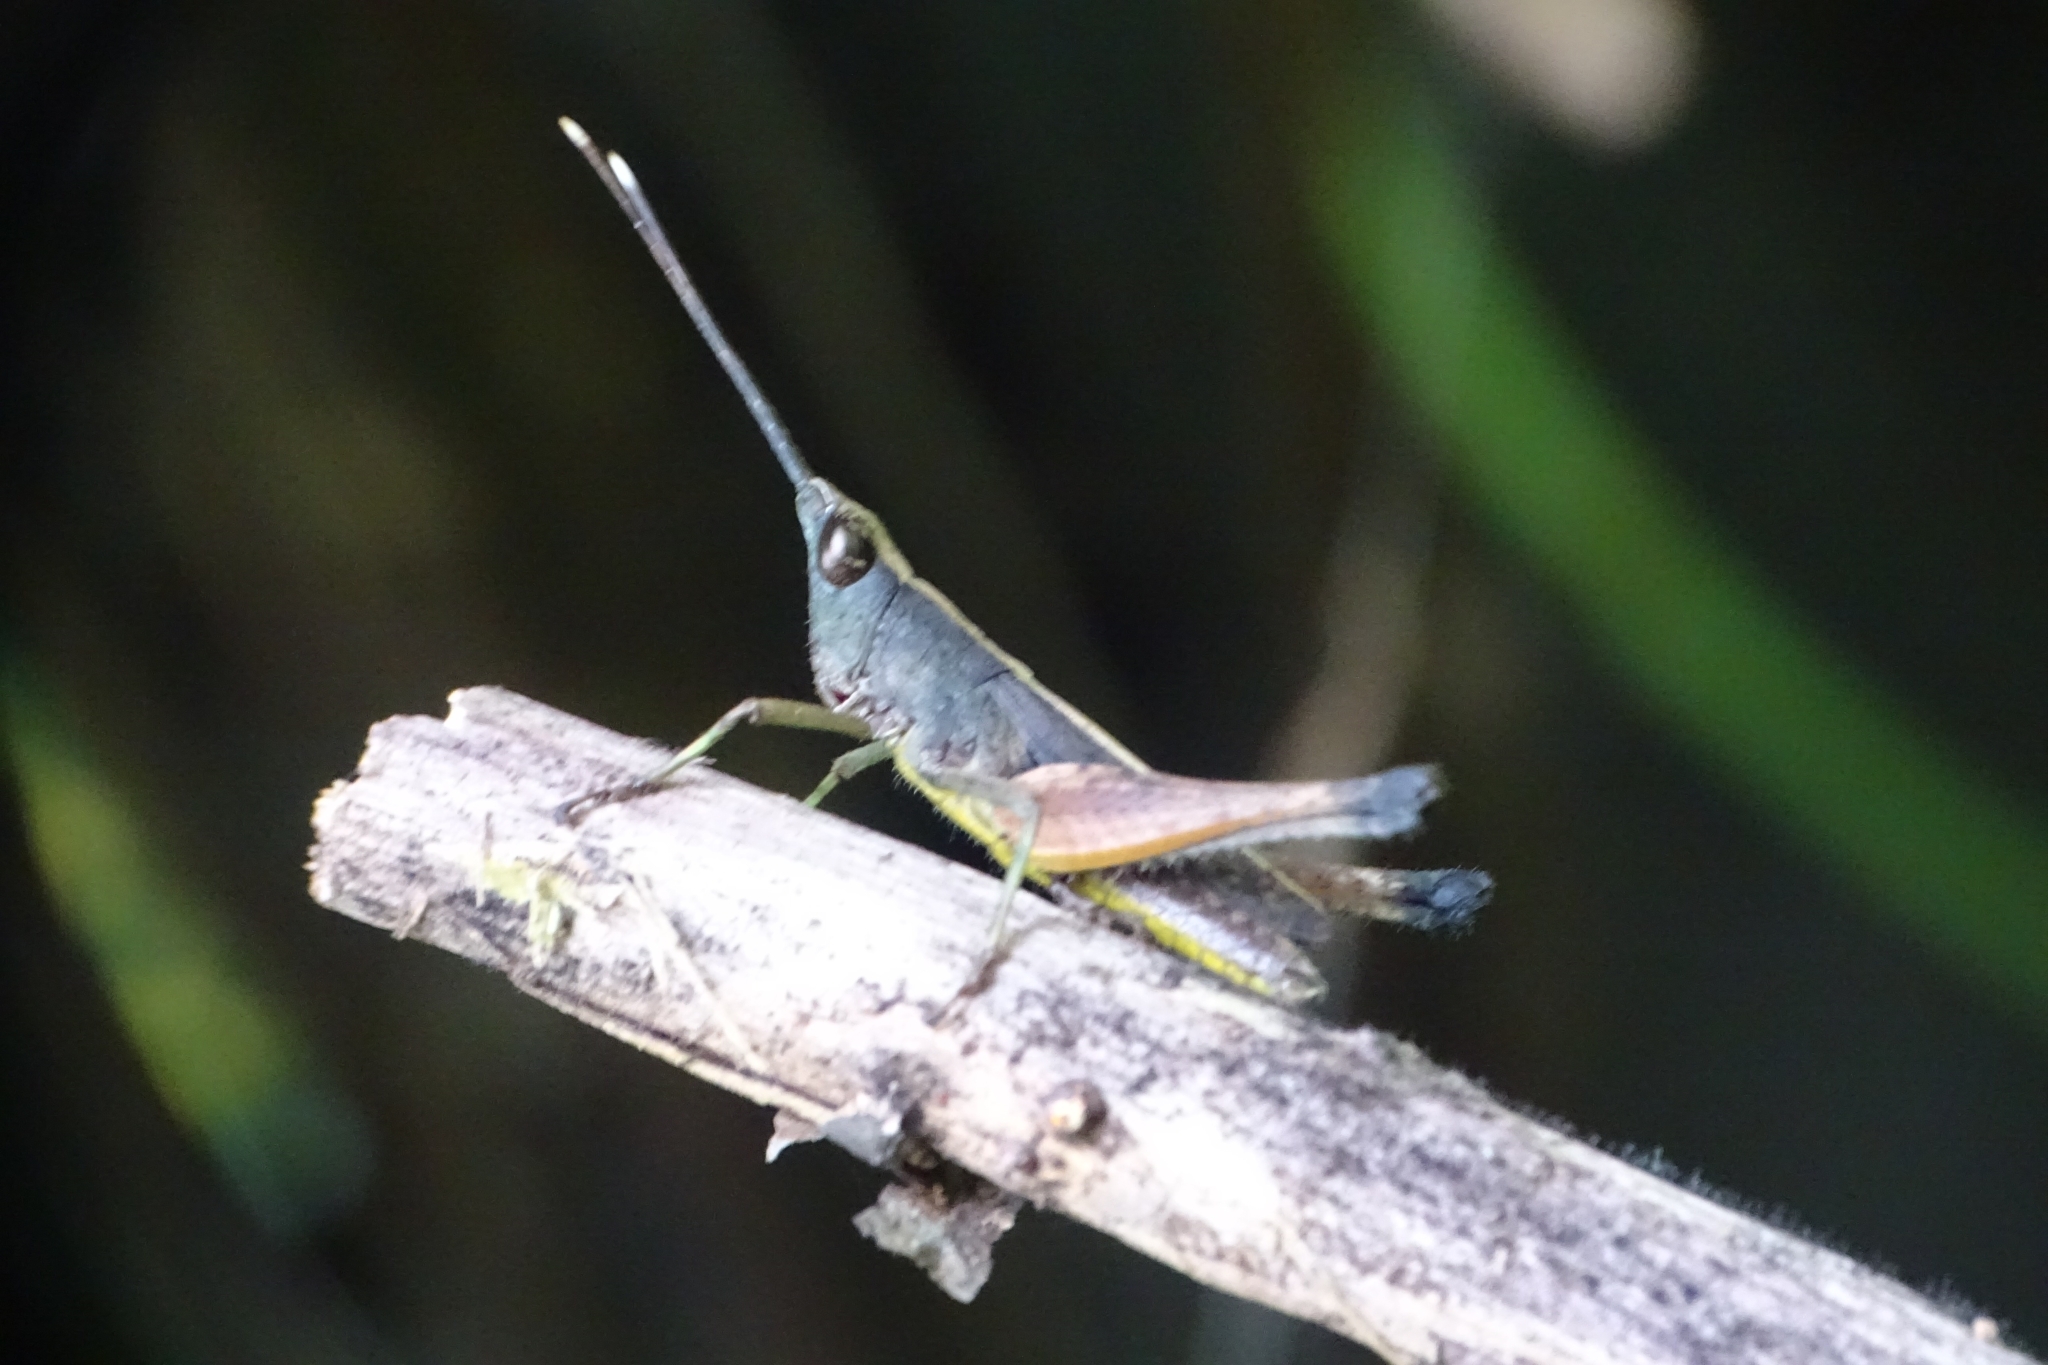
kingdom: Animalia
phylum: Arthropoda
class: Insecta
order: Orthoptera
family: Acrididae
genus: Phlaeoba
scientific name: Phlaeoba antennata
